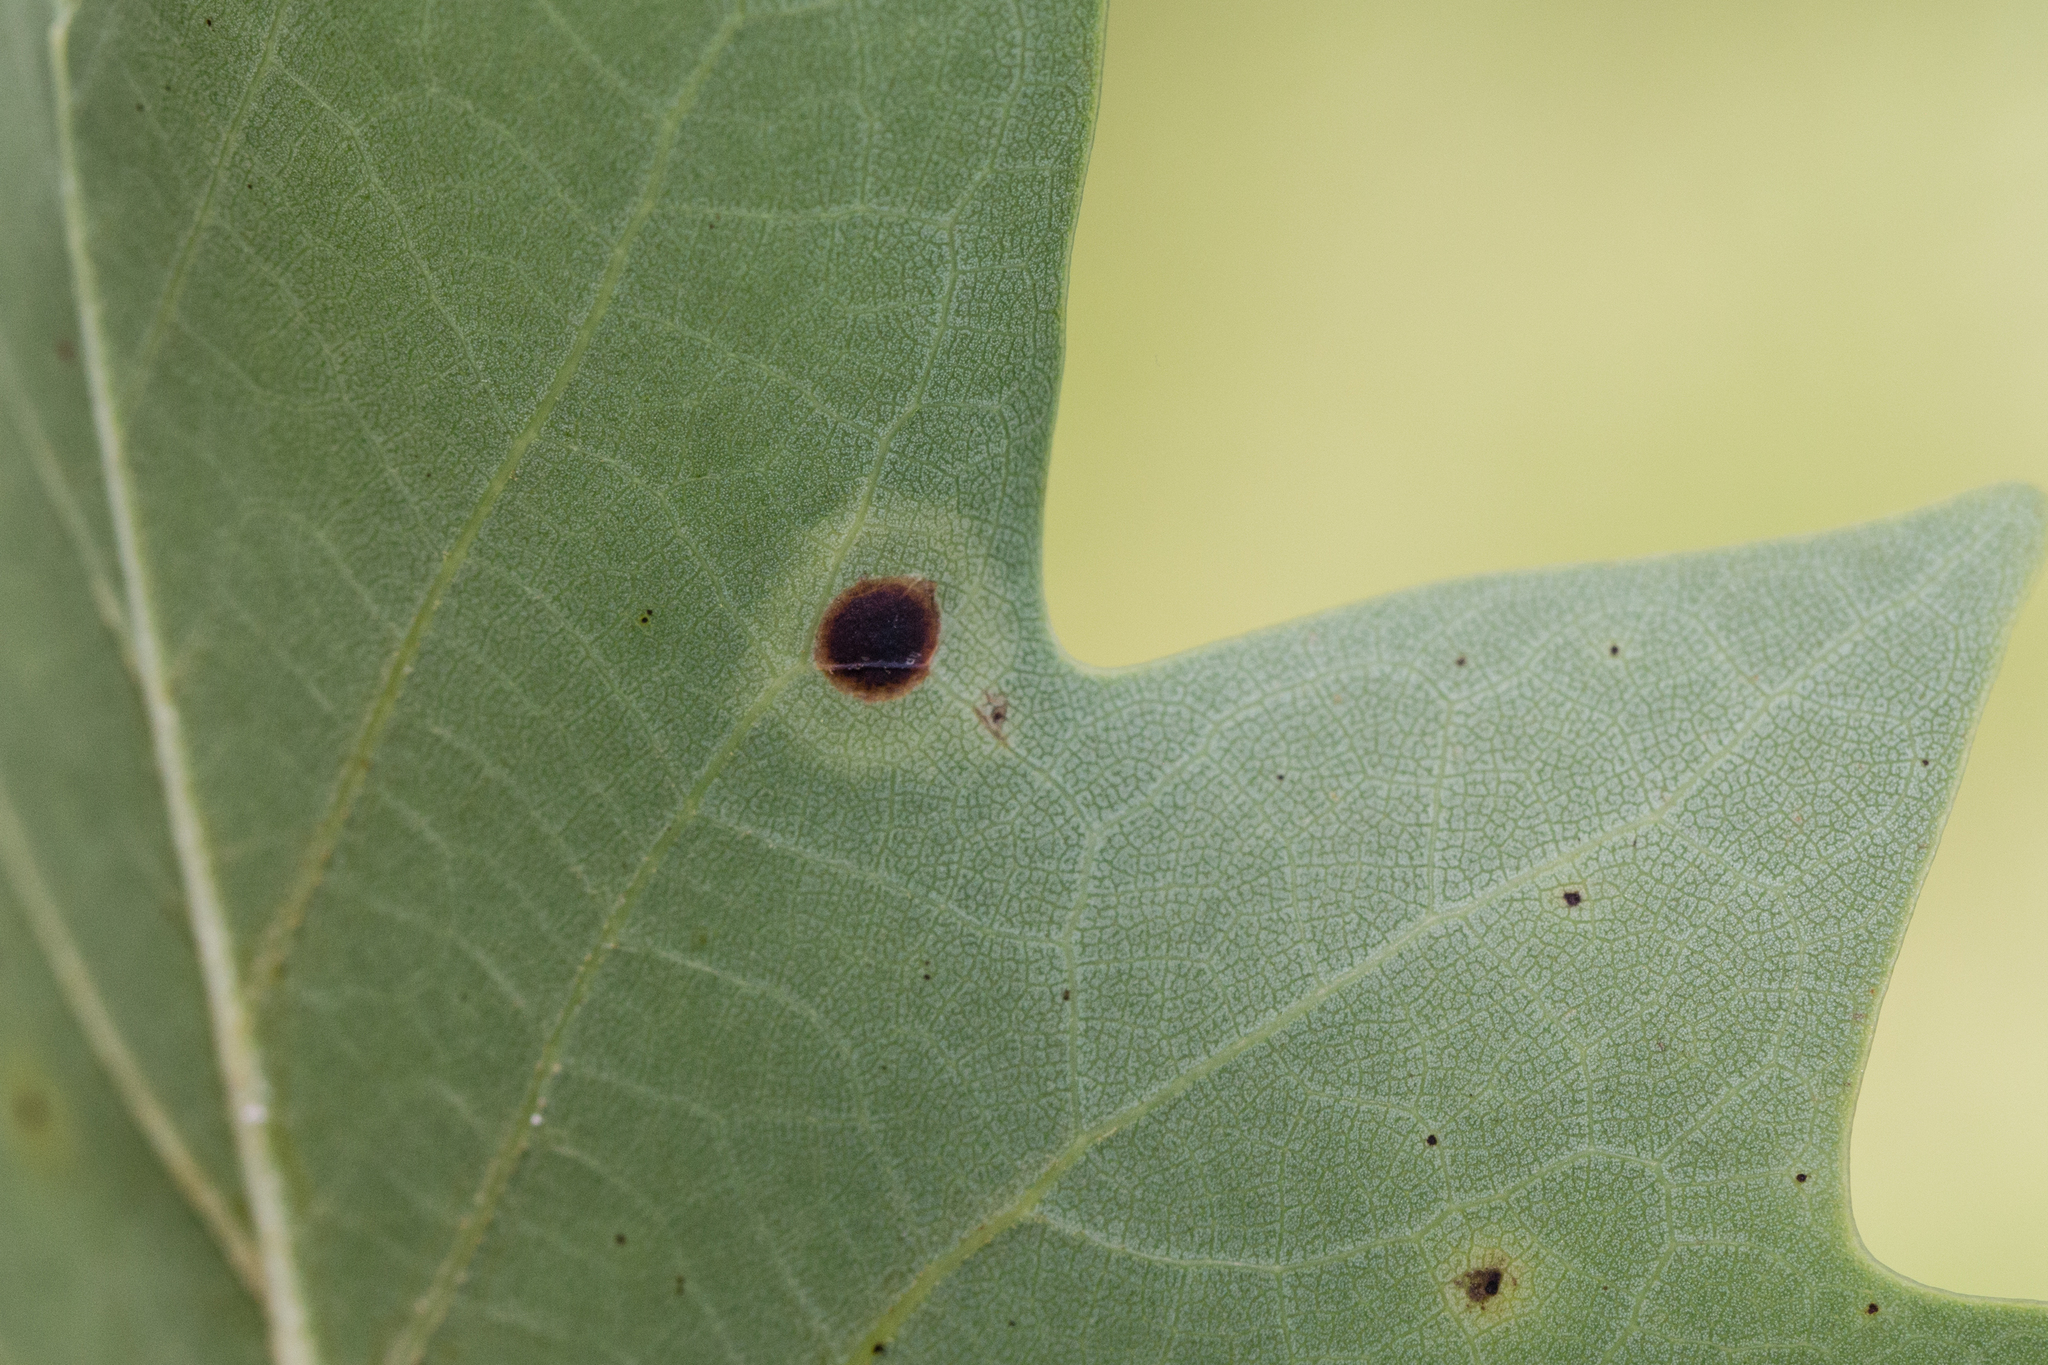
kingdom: Animalia
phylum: Arthropoda
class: Insecta
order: Diptera
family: Cecidomyiidae
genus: Resseliella
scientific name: Resseliella liriodendri
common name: Tulip tree leaf spot gall midge
